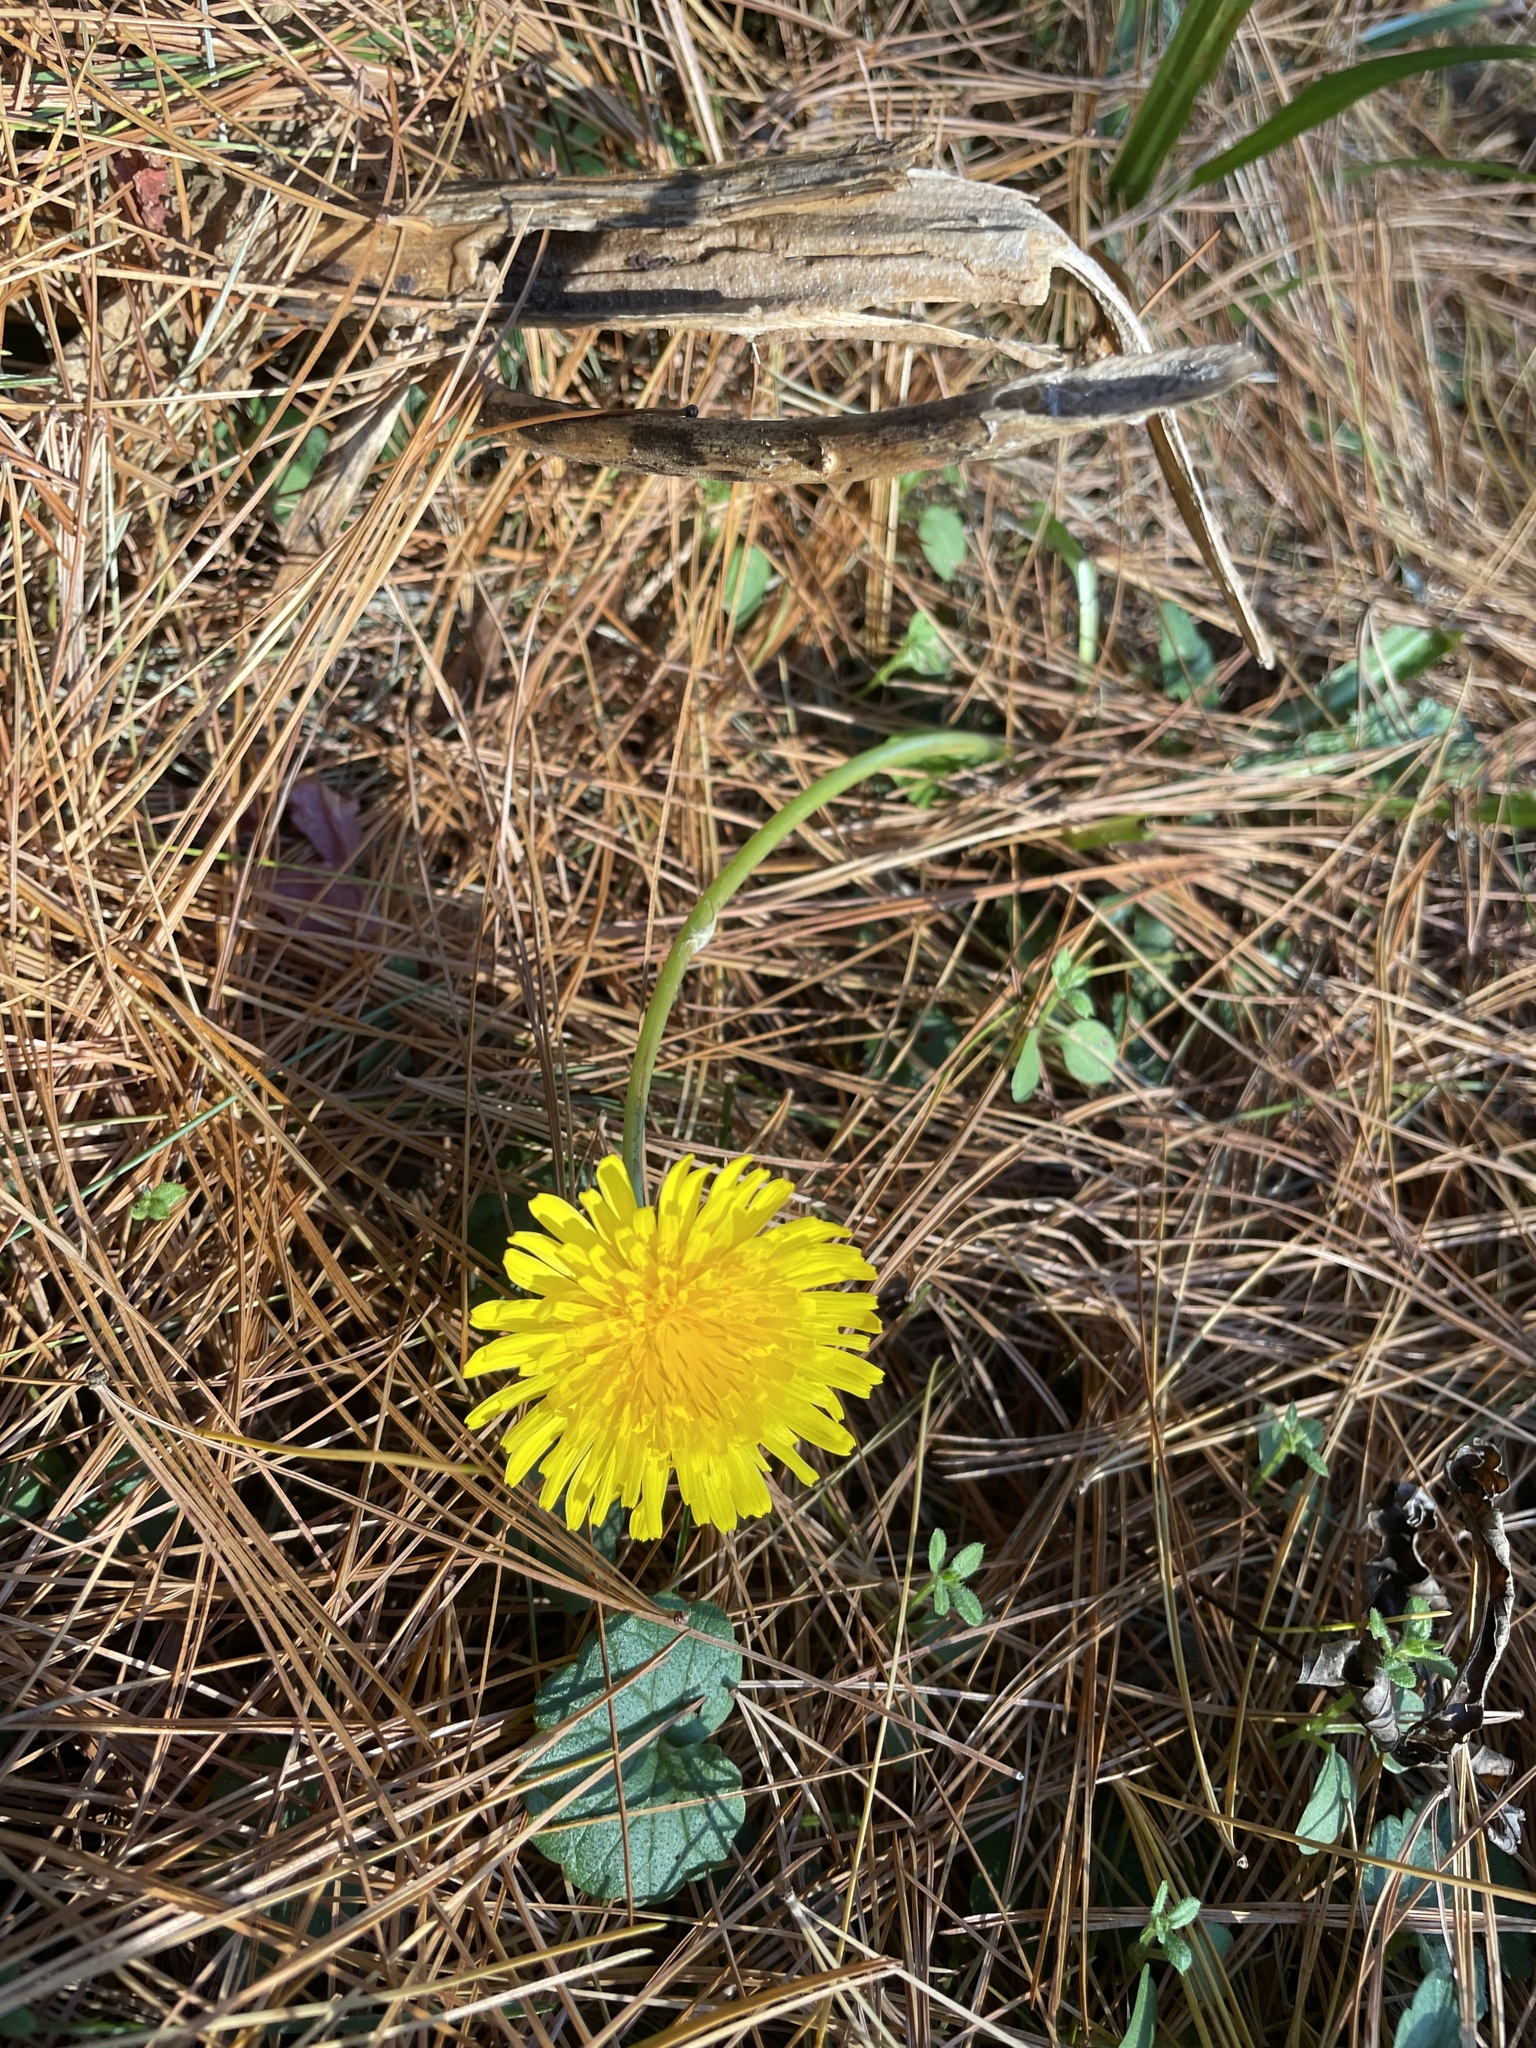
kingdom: Plantae
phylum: Tracheophyta
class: Magnoliopsida
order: Asterales
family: Asteraceae
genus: Taraxacum
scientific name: Taraxacum officinale
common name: Common dandelion
